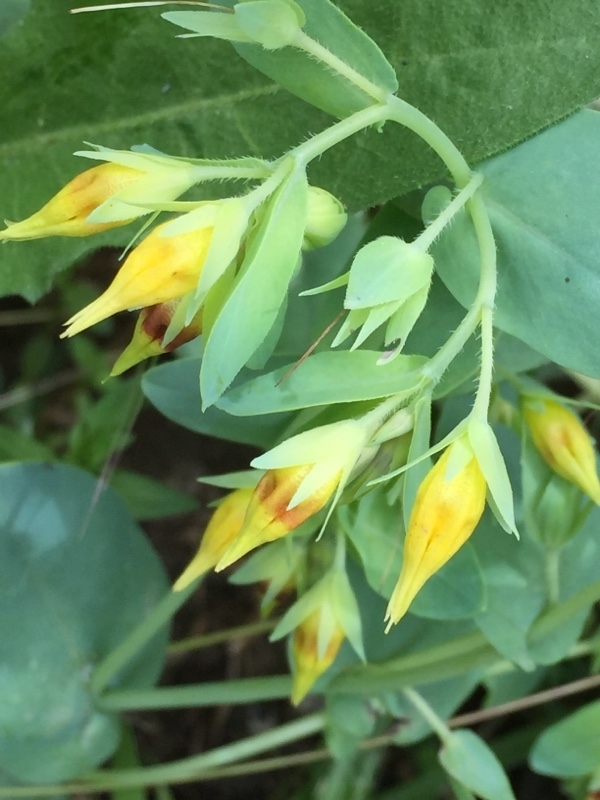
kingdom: Plantae
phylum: Tracheophyta
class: Magnoliopsida
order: Boraginales
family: Boraginaceae
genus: Cerinthe
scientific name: Cerinthe minor
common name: Lesser honeywort
